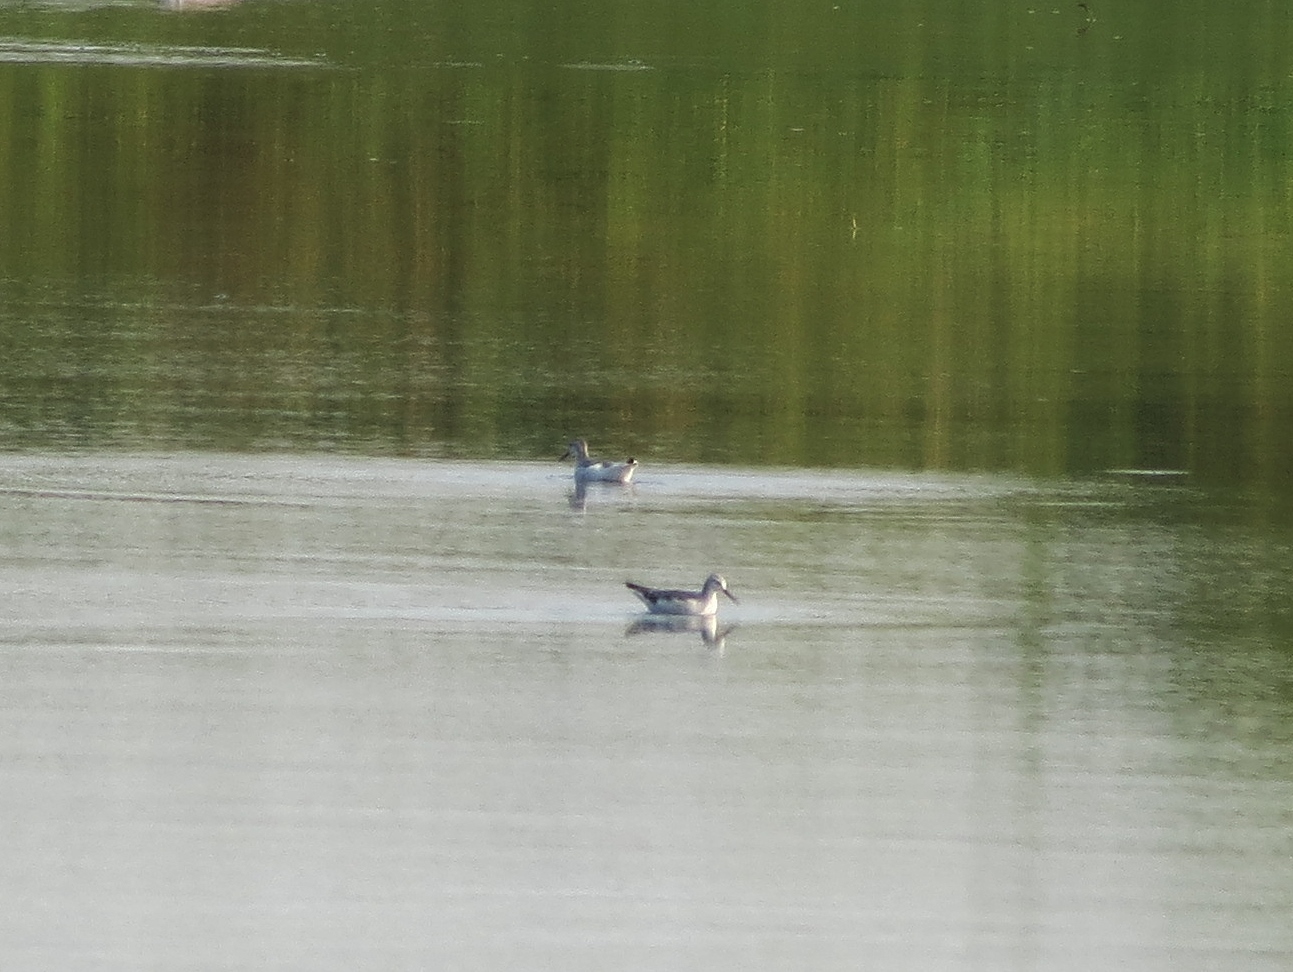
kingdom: Animalia
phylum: Chordata
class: Aves
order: Charadriiformes
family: Scolopacidae
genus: Phalaropus
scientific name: Phalaropus tricolor
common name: Wilson's phalarope
